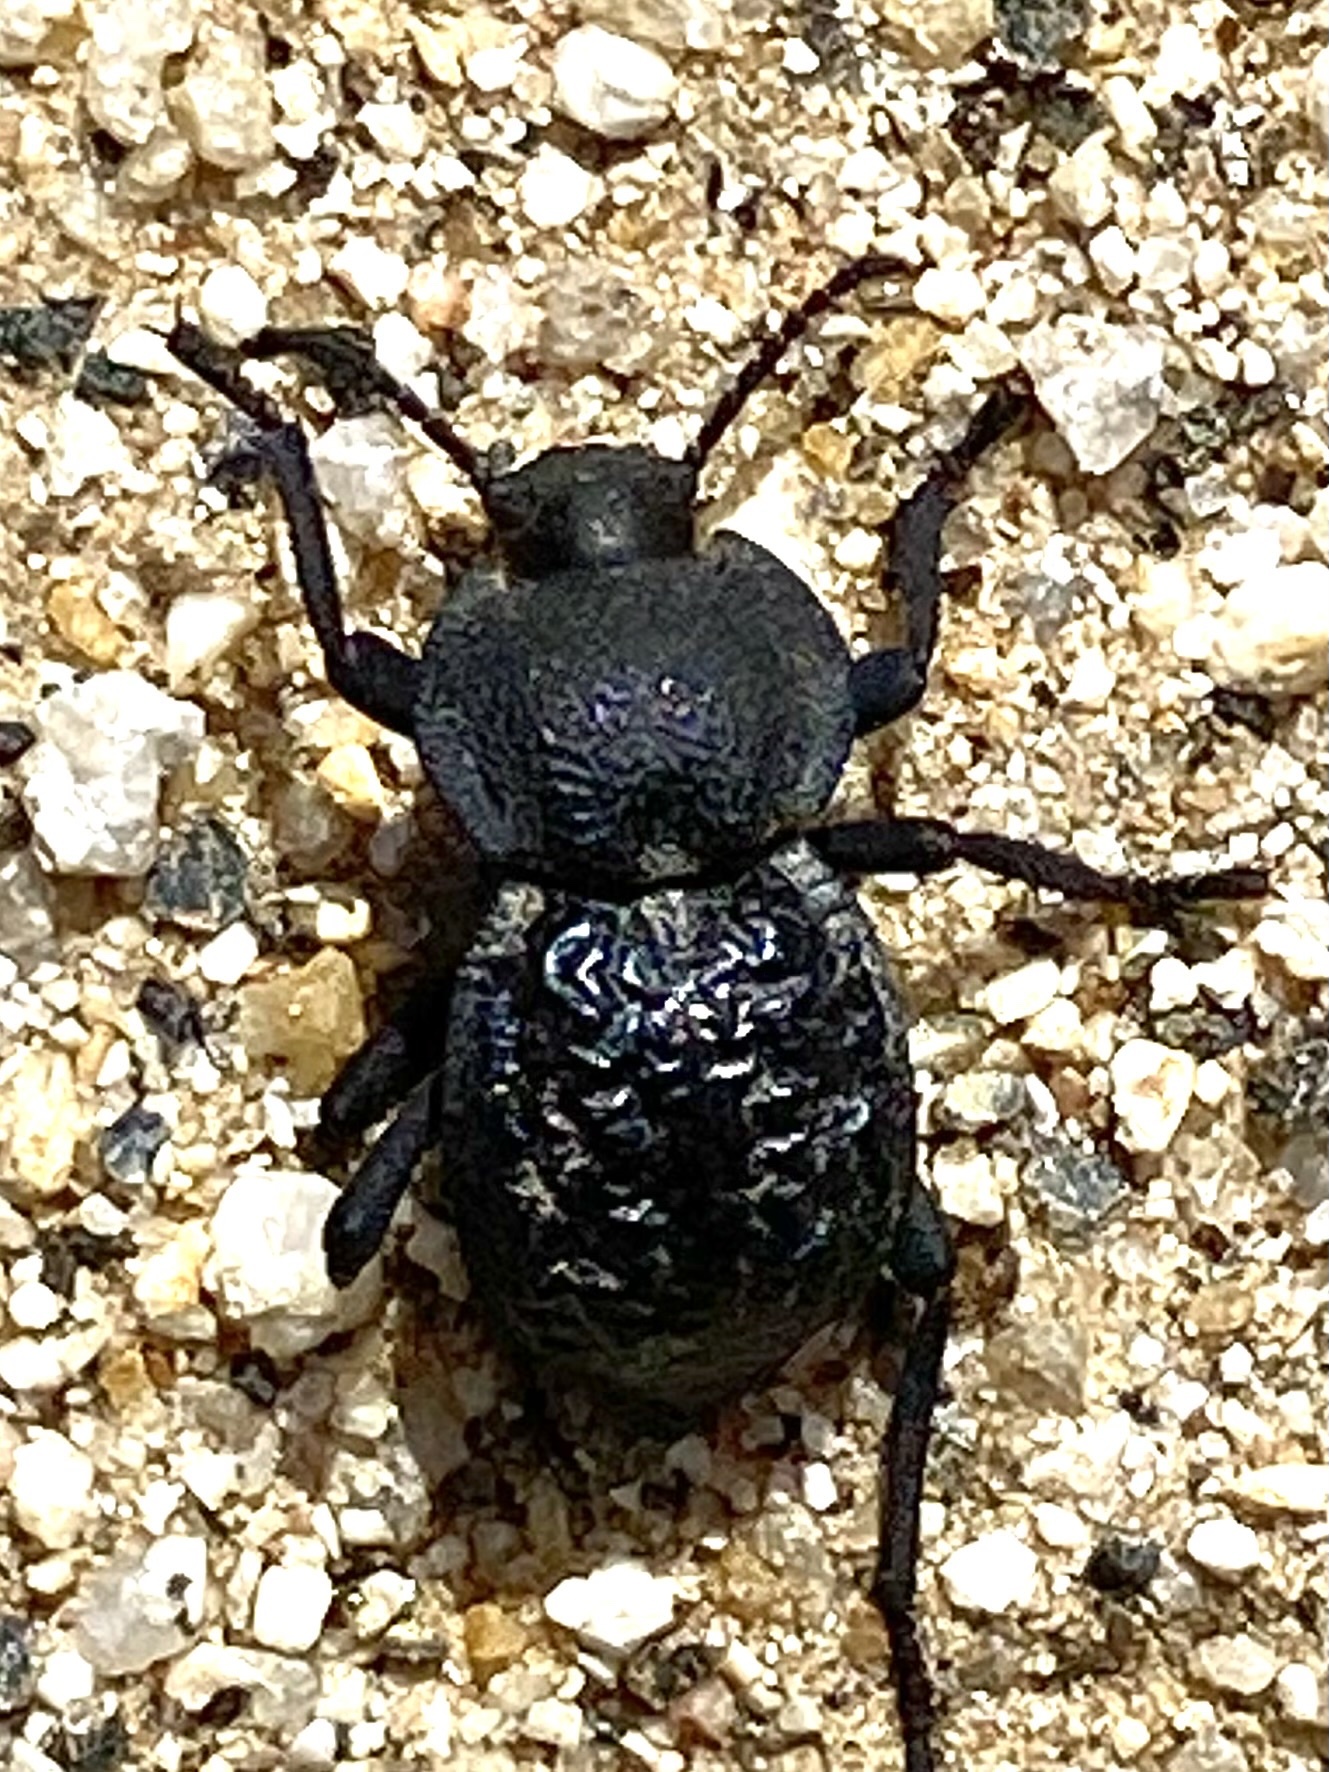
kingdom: Animalia
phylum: Arthropoda
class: Insecta
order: Coleoptera
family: Tenebrionidae
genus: Microschatia
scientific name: Microschatia inaequalis
